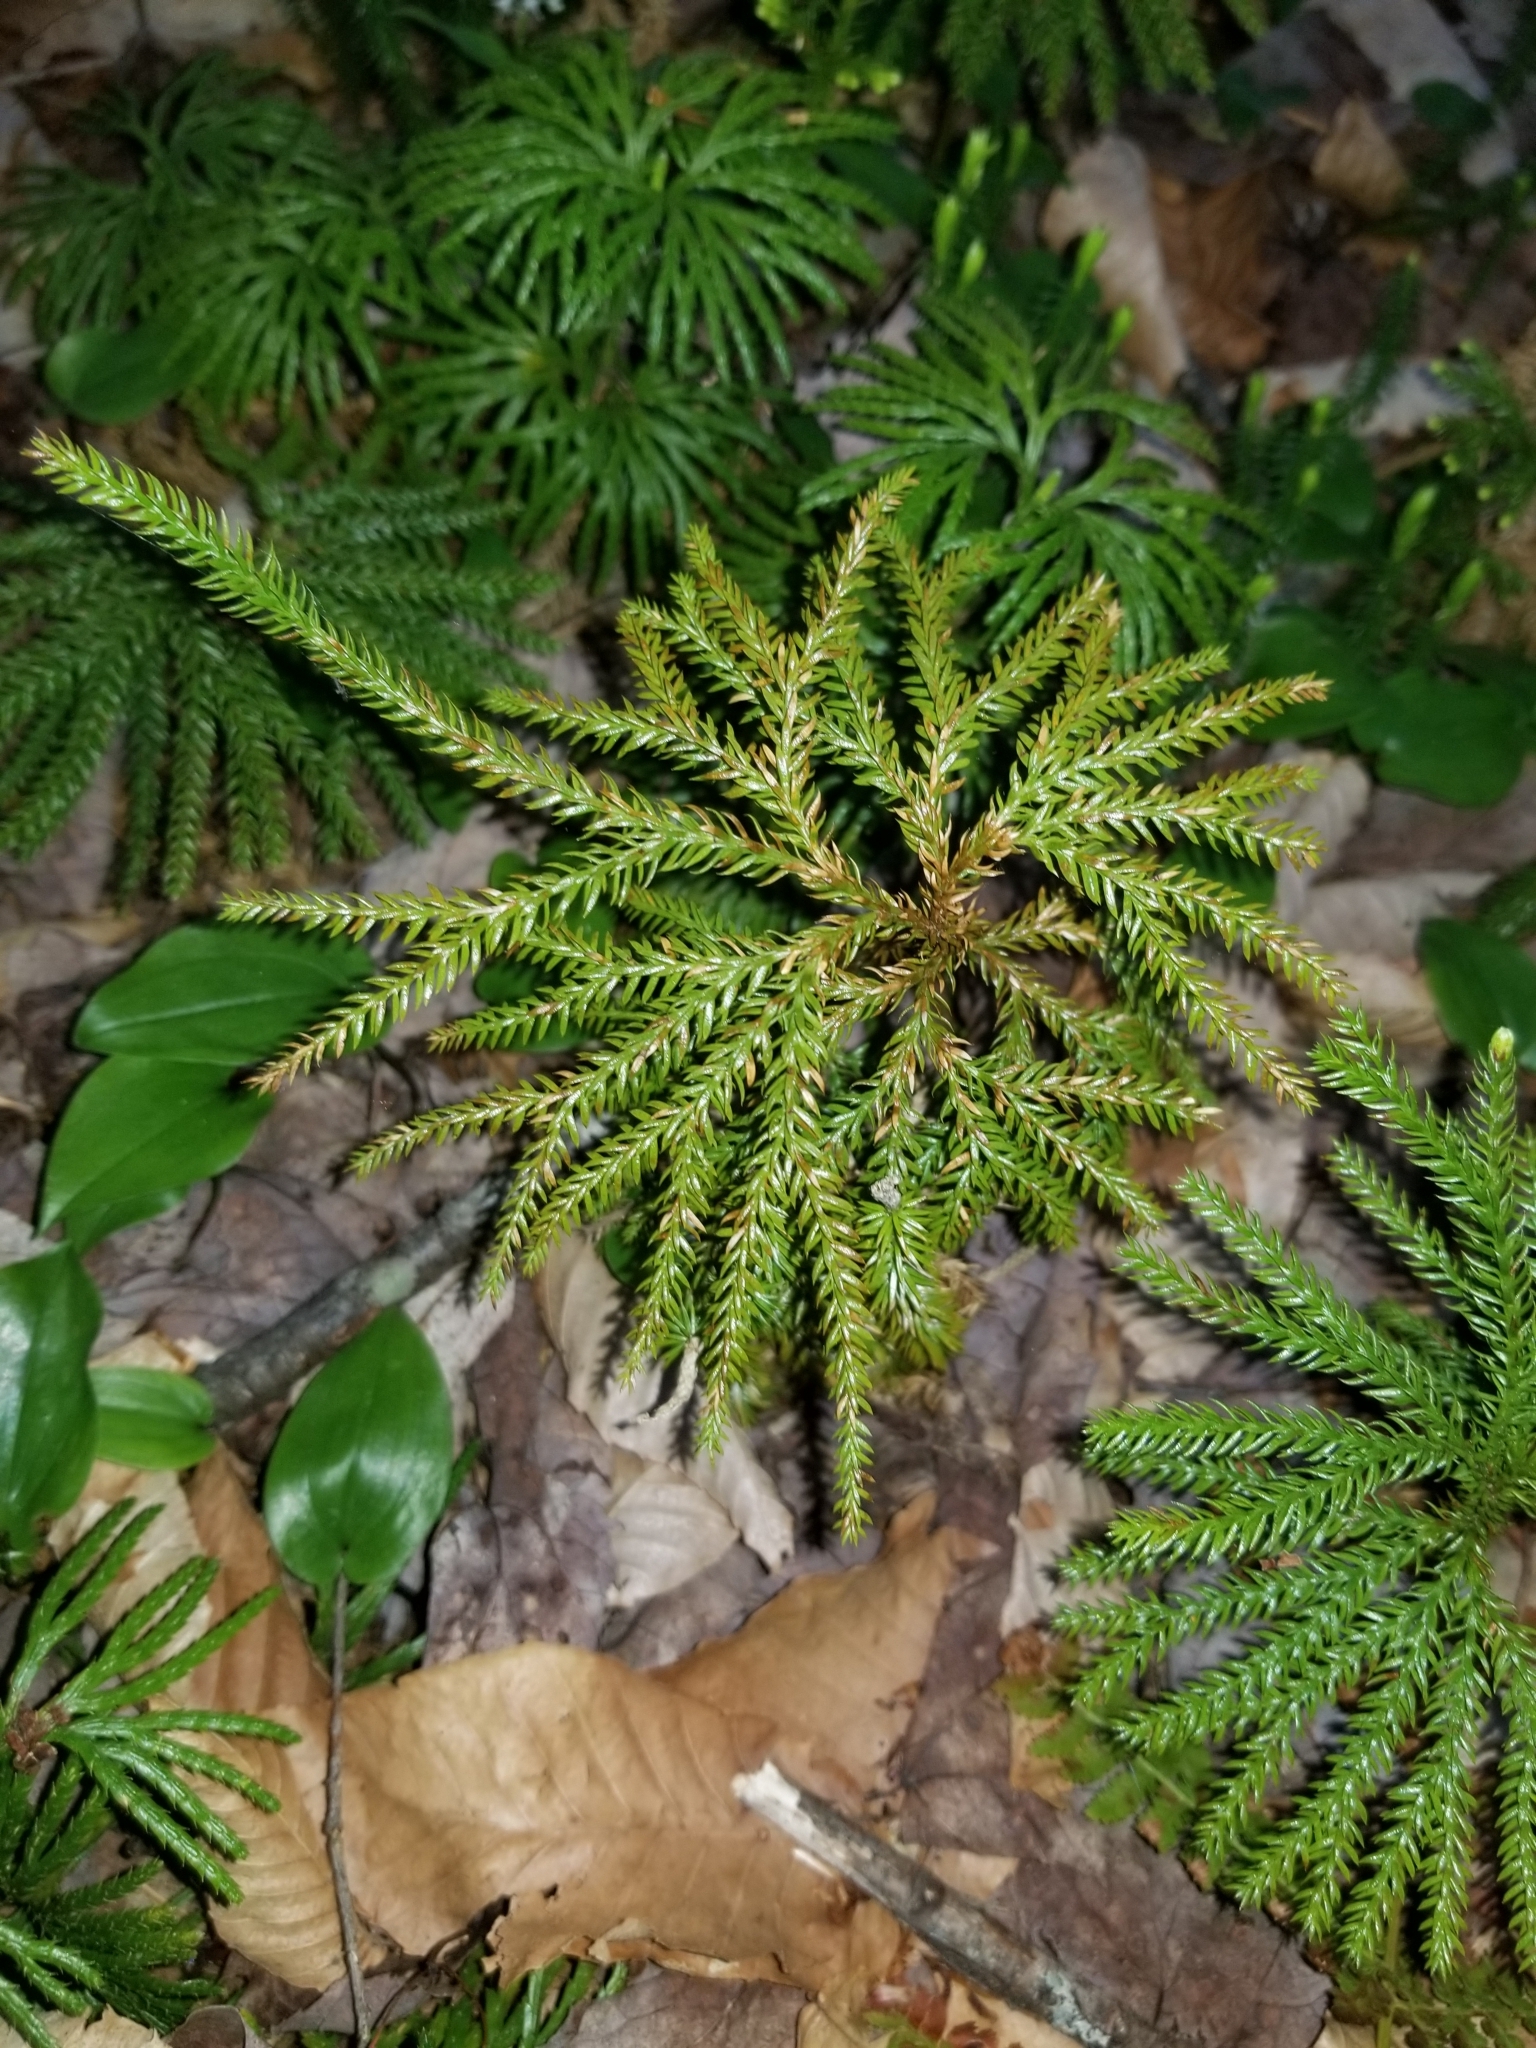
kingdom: Plantae
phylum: Tracheophyta
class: Lycopodiopsida
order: Lycopodiales
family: Lycopodiaceae
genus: Dendrolycopodium
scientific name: Dendrolycopodium obscurum
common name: Common ground-pine
